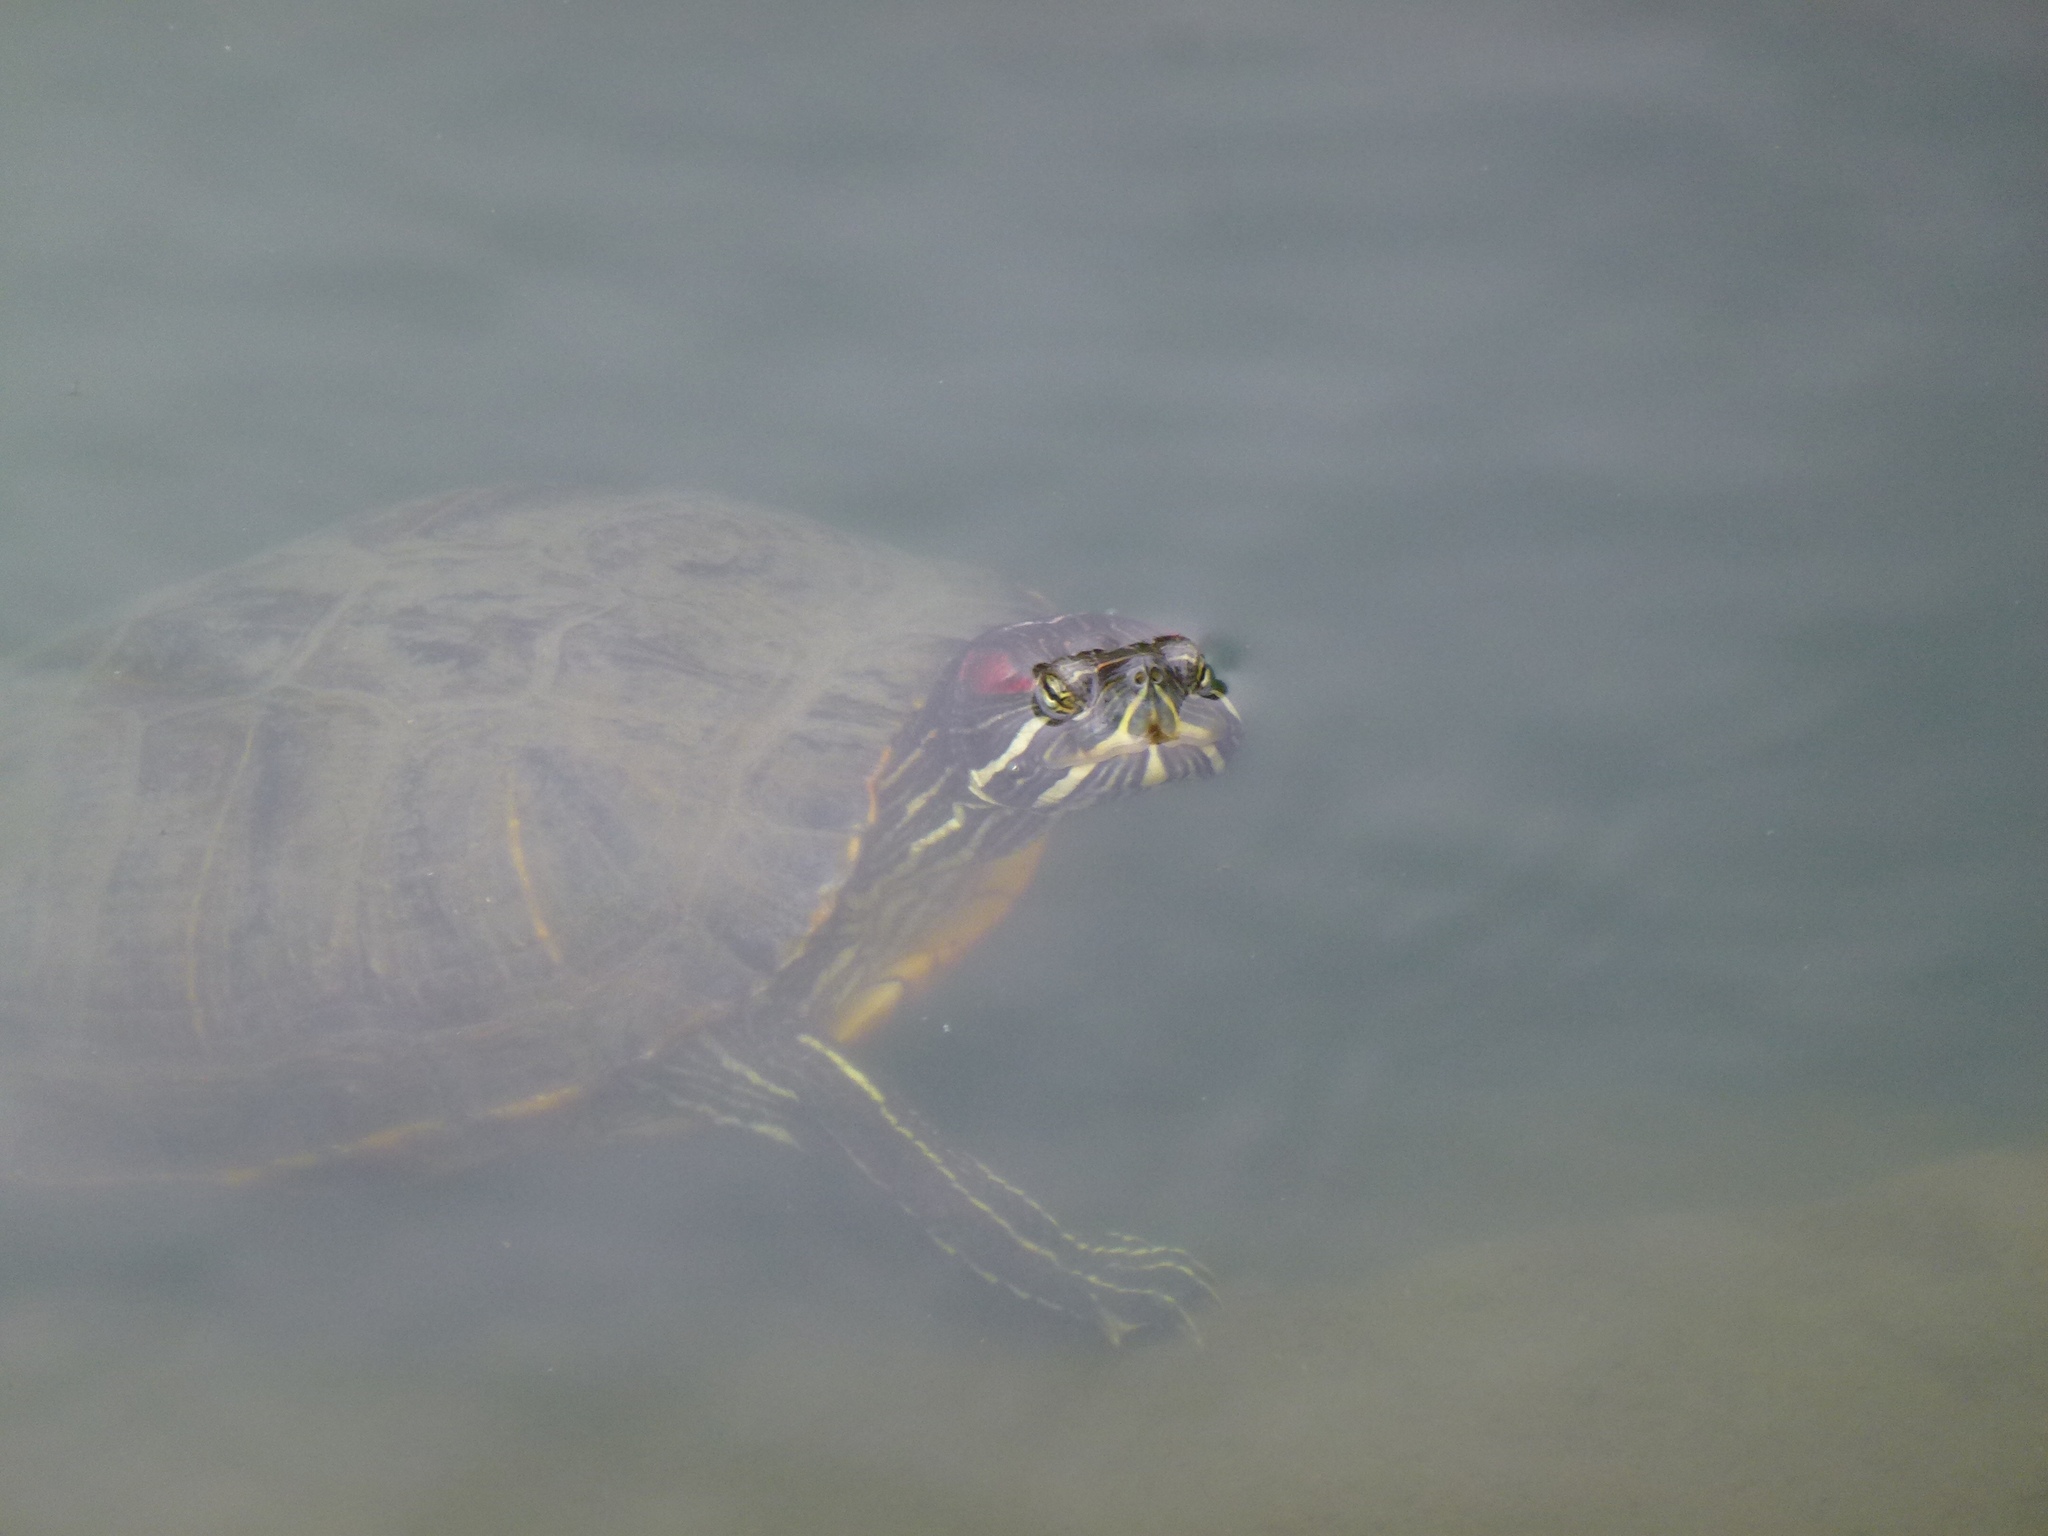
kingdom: Animalia
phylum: Chordata
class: Testudines
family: Emydidae
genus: Trachemys
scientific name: Trachemys scripta
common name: Slider
